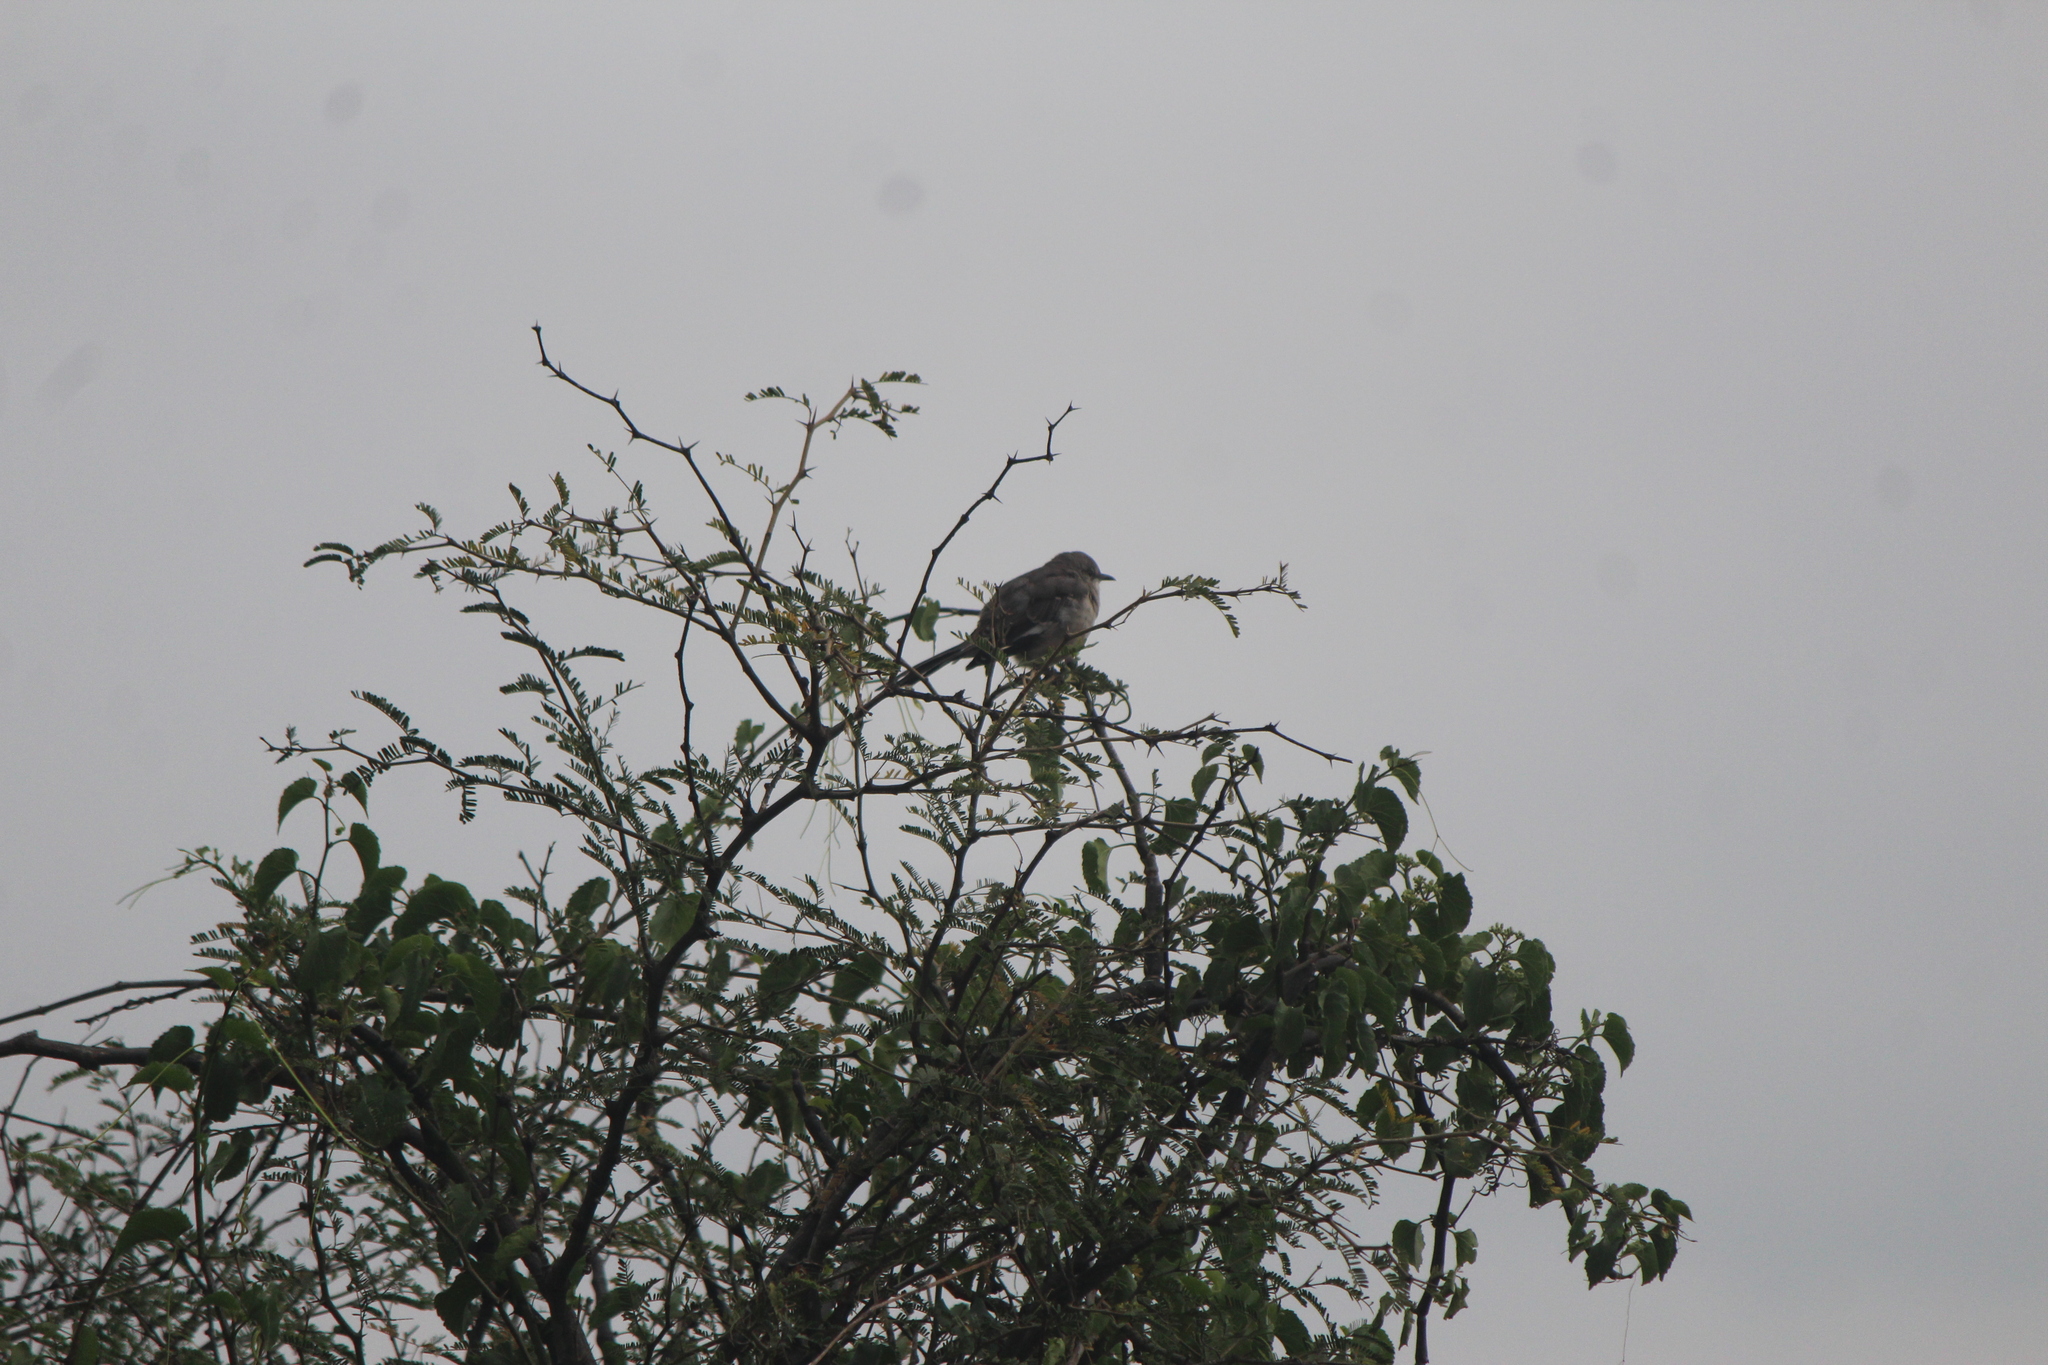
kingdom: Animalia
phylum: Chordata
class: Aves
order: Passeriformes
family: Mimidae
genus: Mimus
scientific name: Mimus polyglottos
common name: Northern mockingbird
